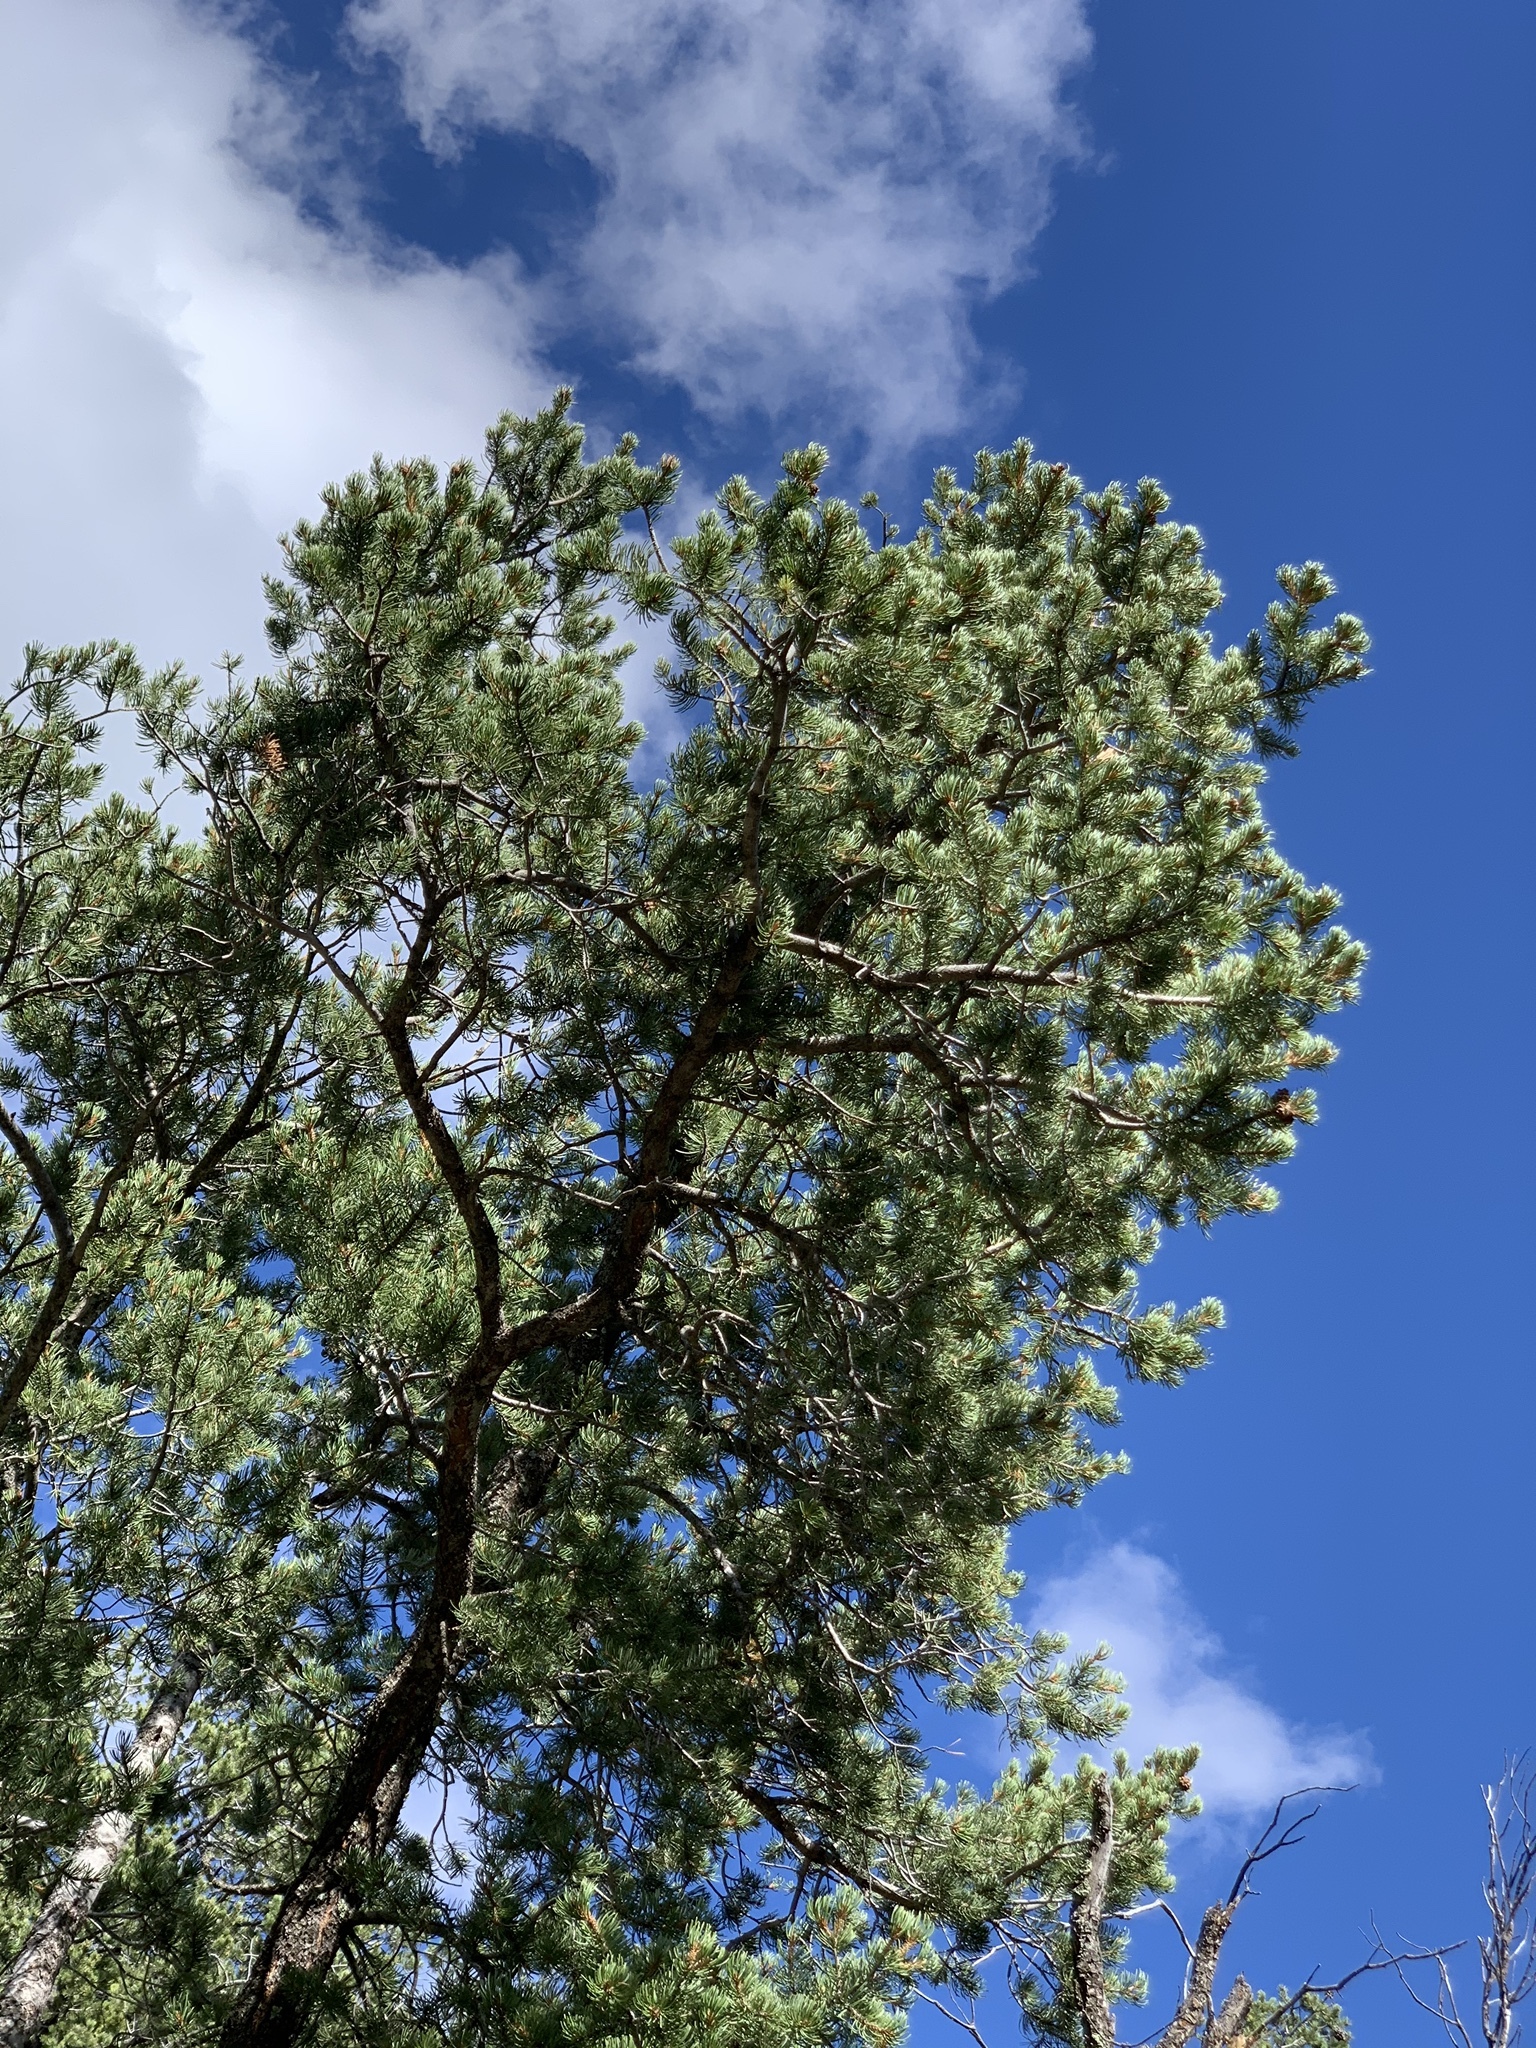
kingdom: Plantae
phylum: Tracheophyta
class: Pinopsida
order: Pinales
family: Pinaceae
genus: Pinus
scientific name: Pinus edulis
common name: Colorado pinyon
